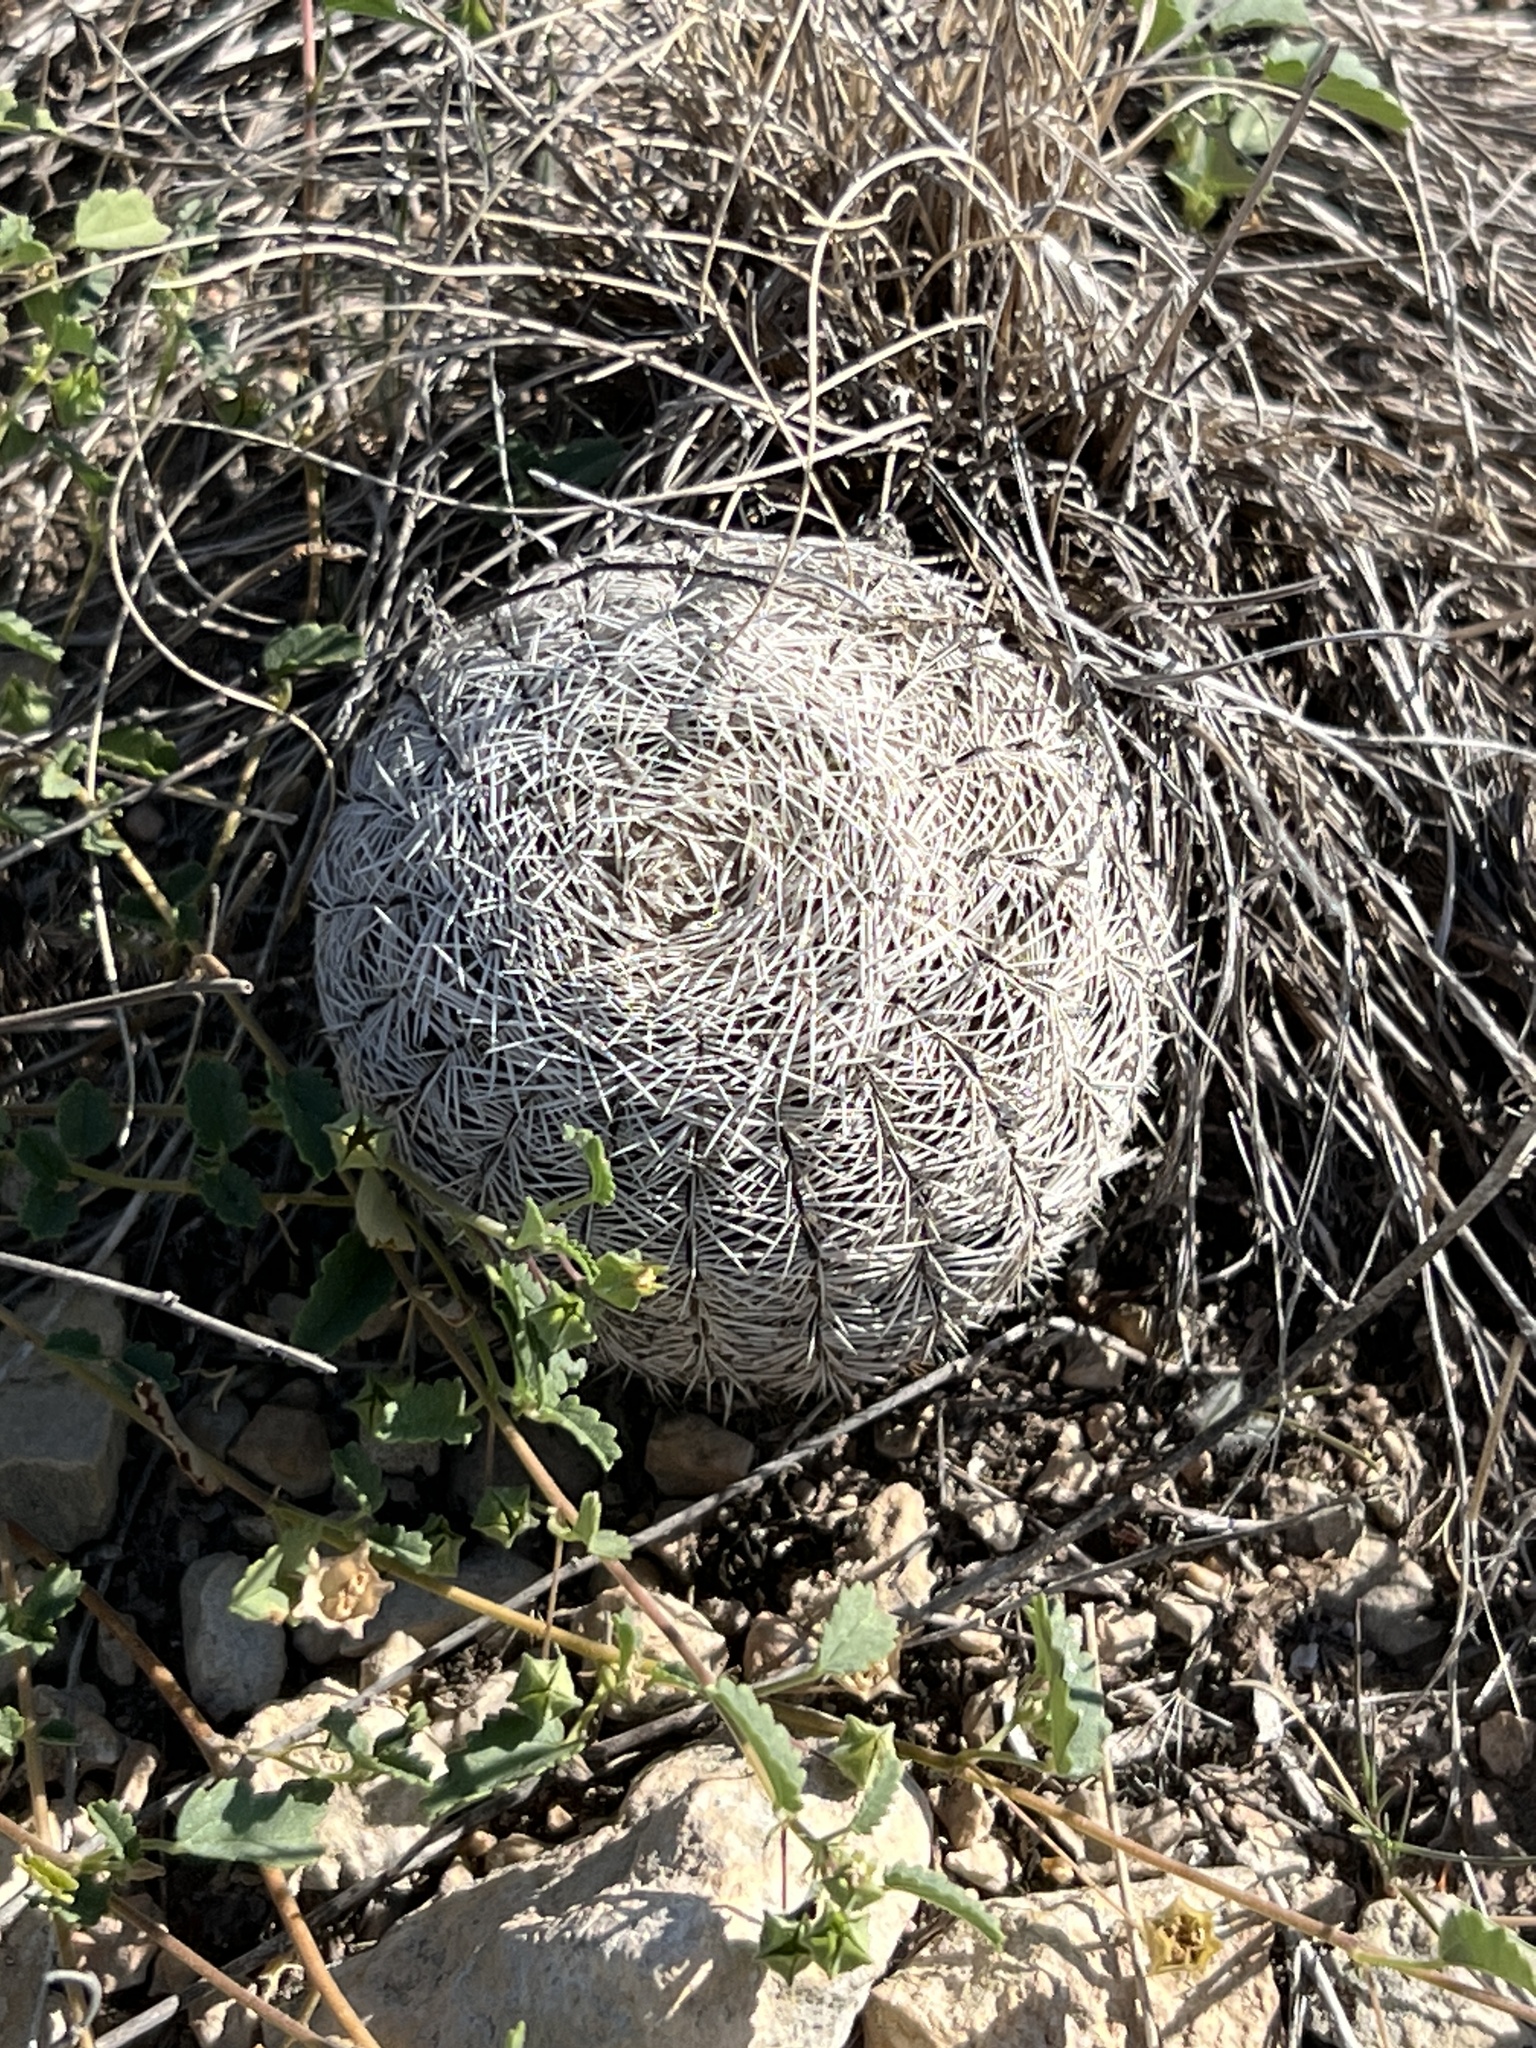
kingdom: Plantae
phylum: Tracheophyta
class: Magnoliopsida
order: Caryophyllales
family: Cactaceae
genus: Echinocereus
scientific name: Echinocereus reichenbachii
